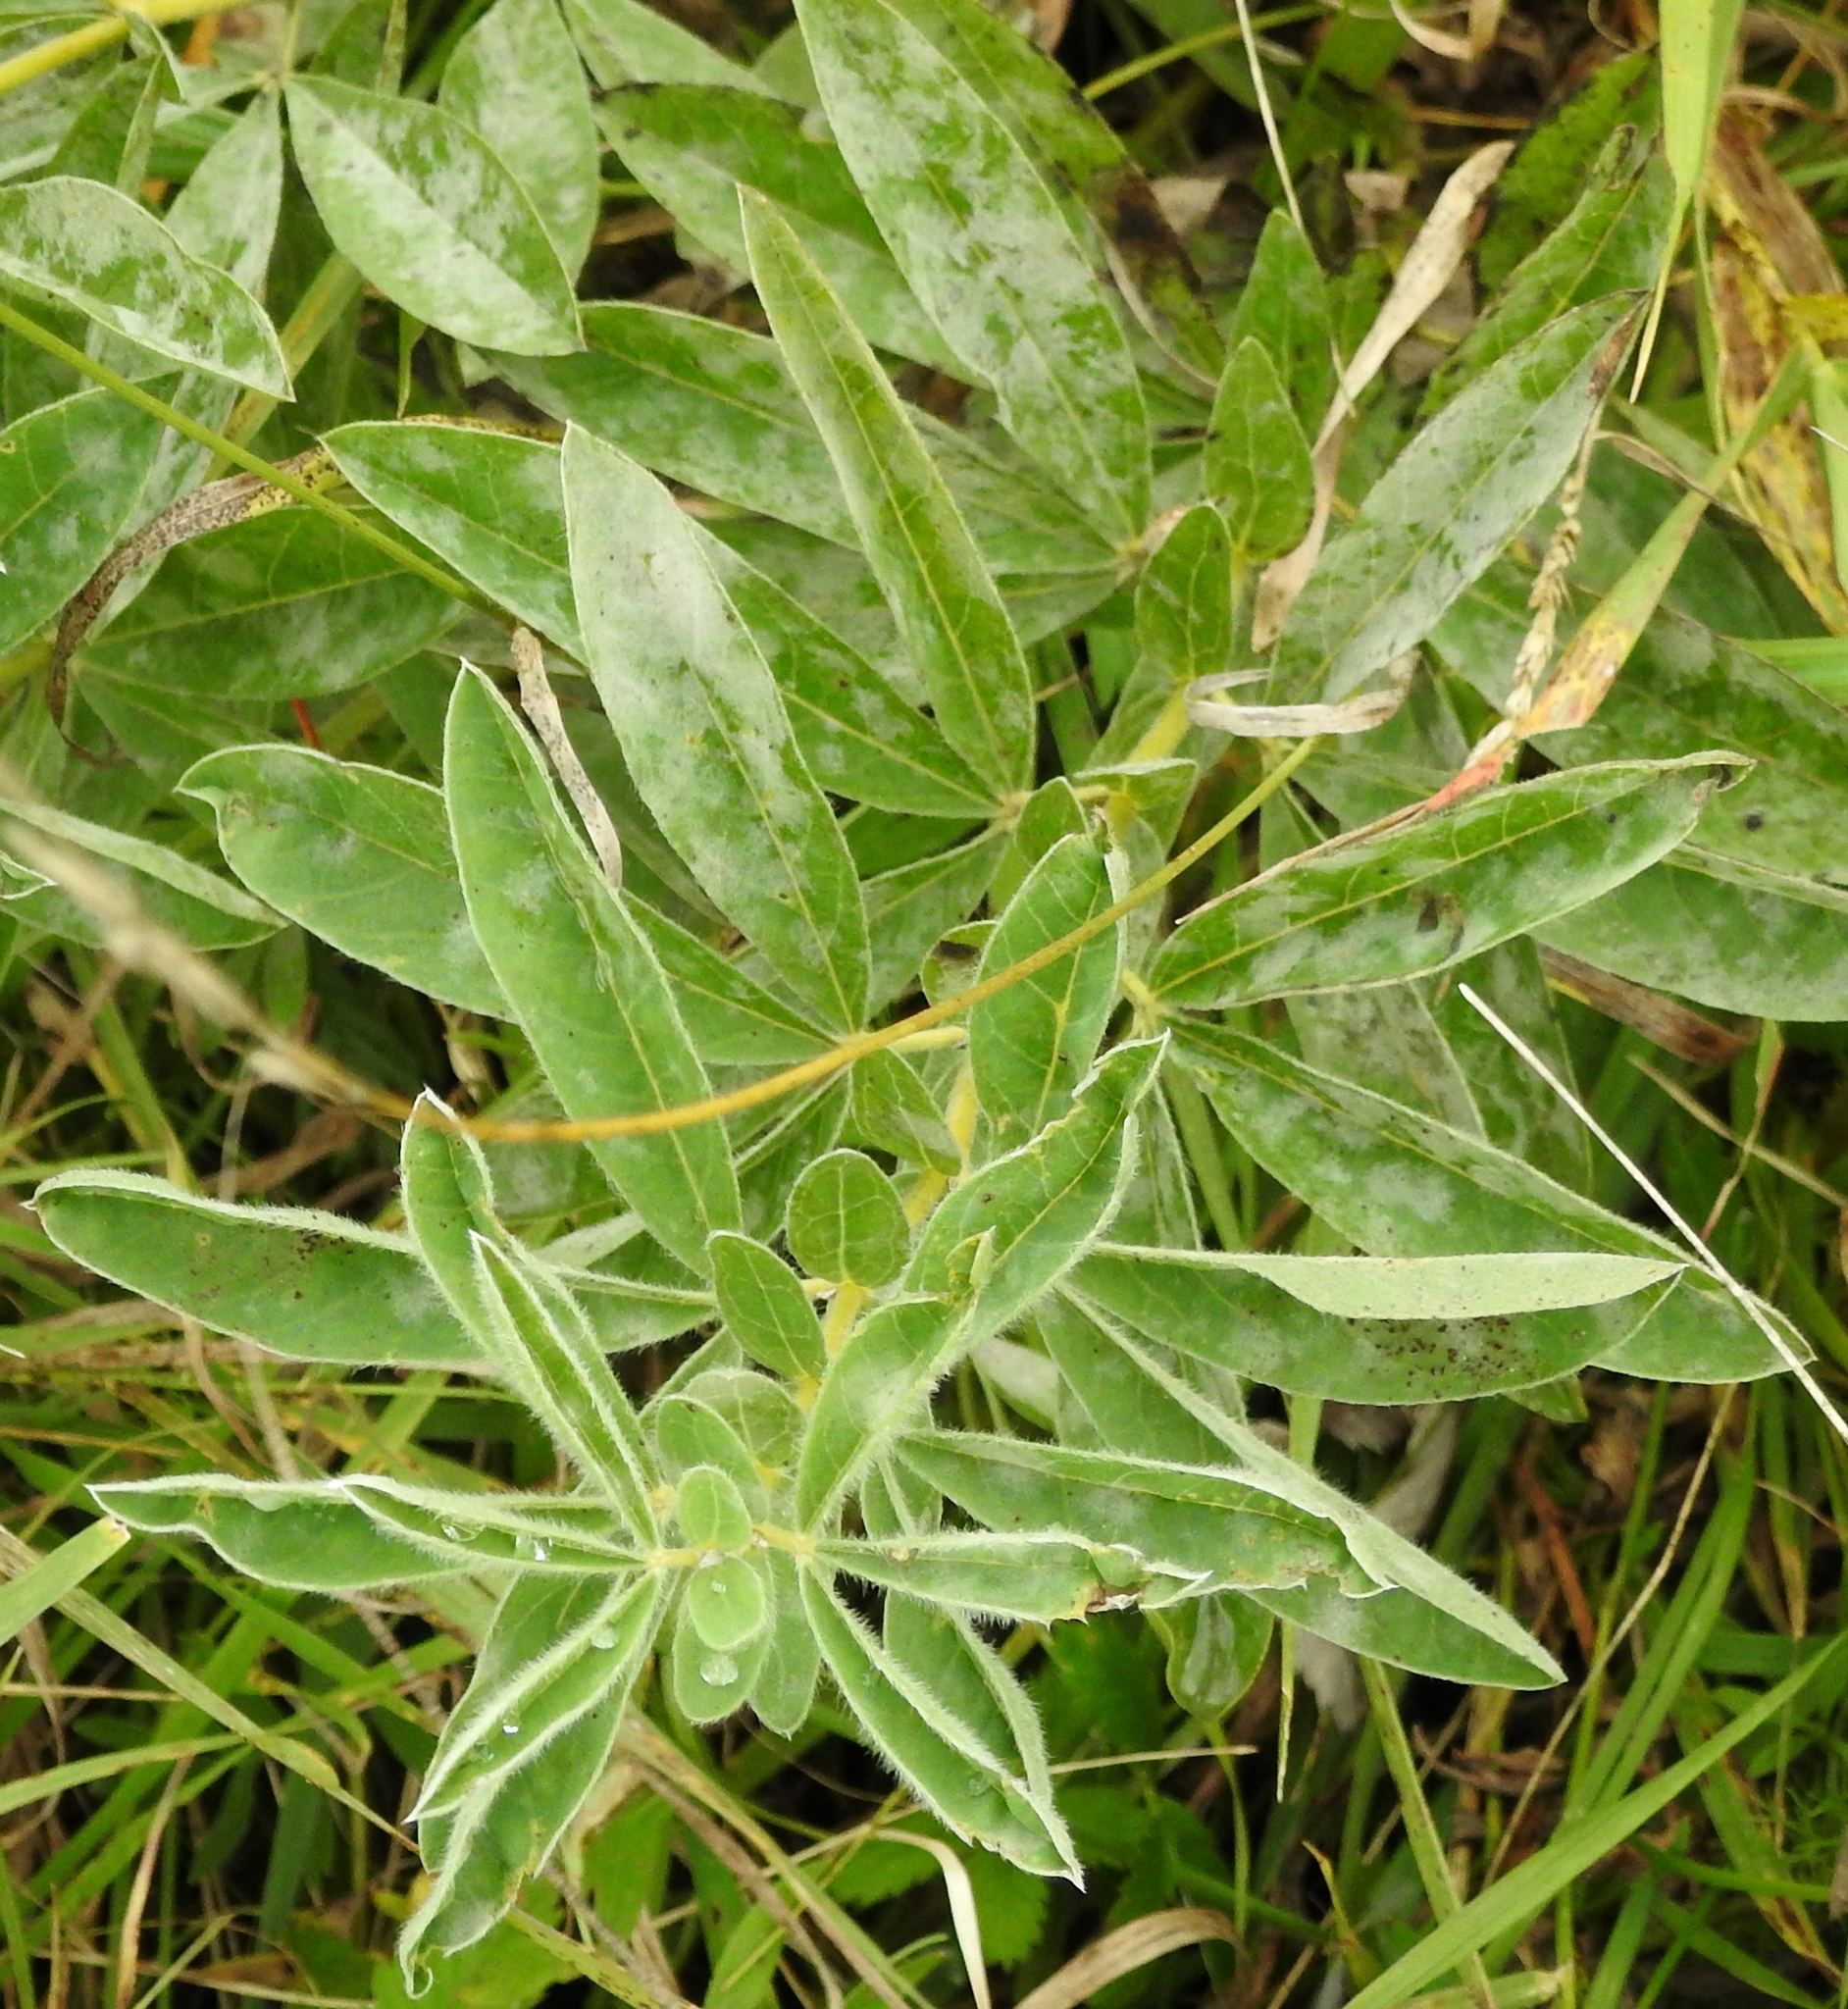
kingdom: Plantae
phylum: Tracheophyta
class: Magnoliopsida
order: Fabales
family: Fabaceae
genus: Thermopsis
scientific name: Thermopsis lanceolata
